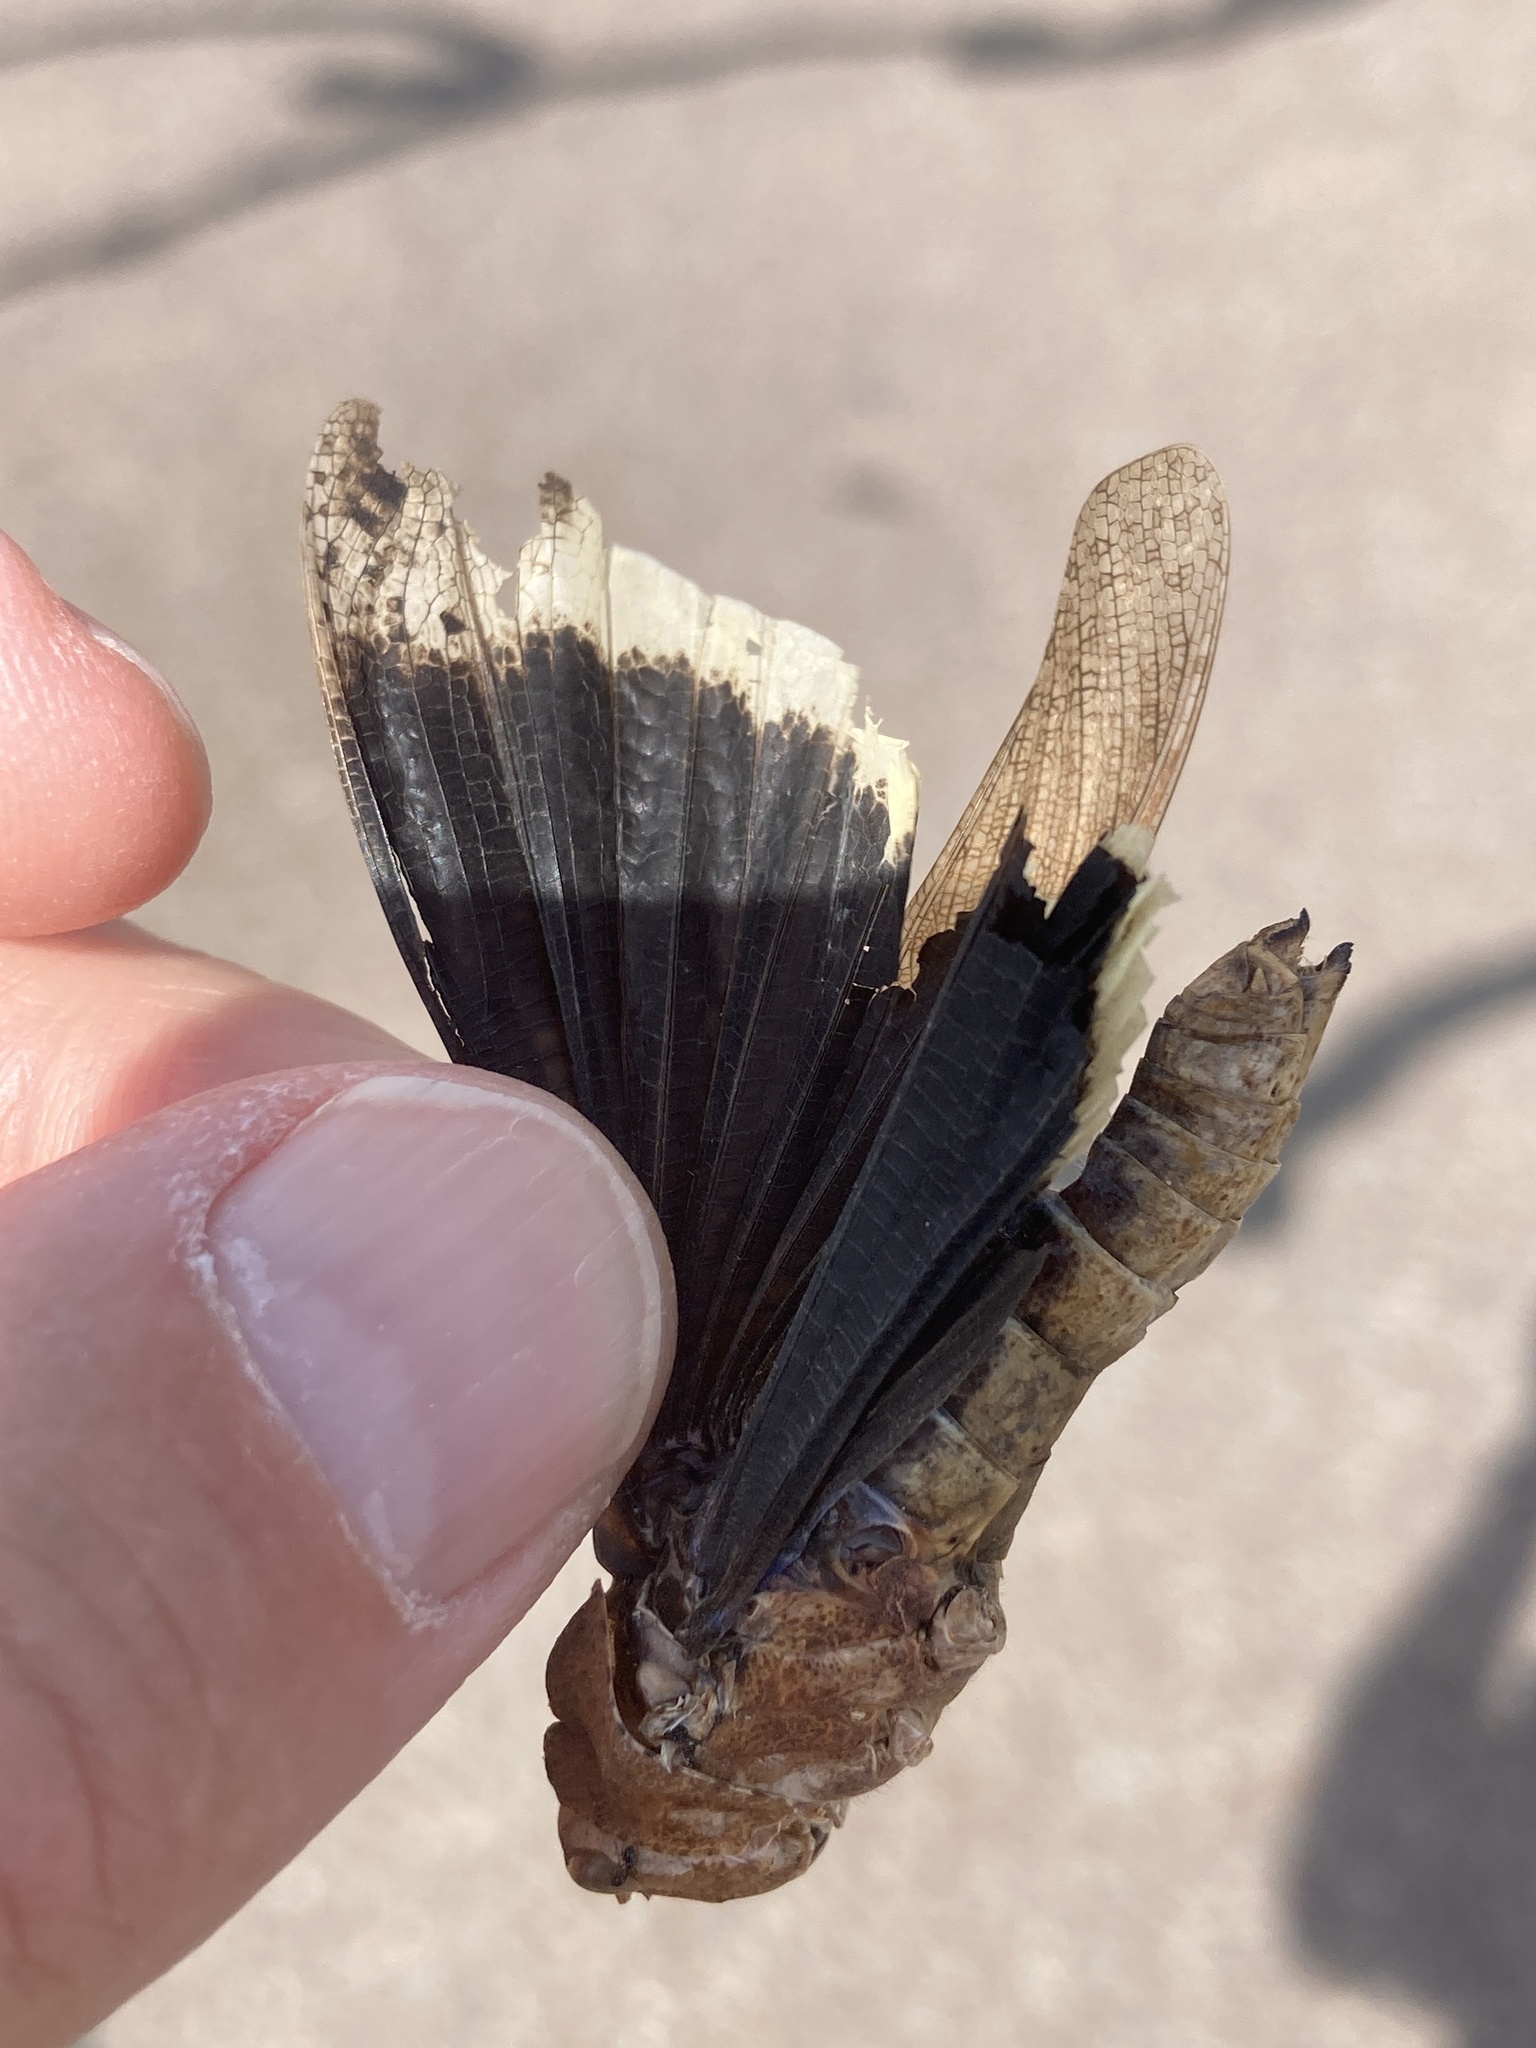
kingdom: Animalia
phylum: Arthropoda
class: Insecta
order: Orthoptera
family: Acrididae
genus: Dissosteira
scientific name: Dissosteira carolina
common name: Carolina grasshopper
